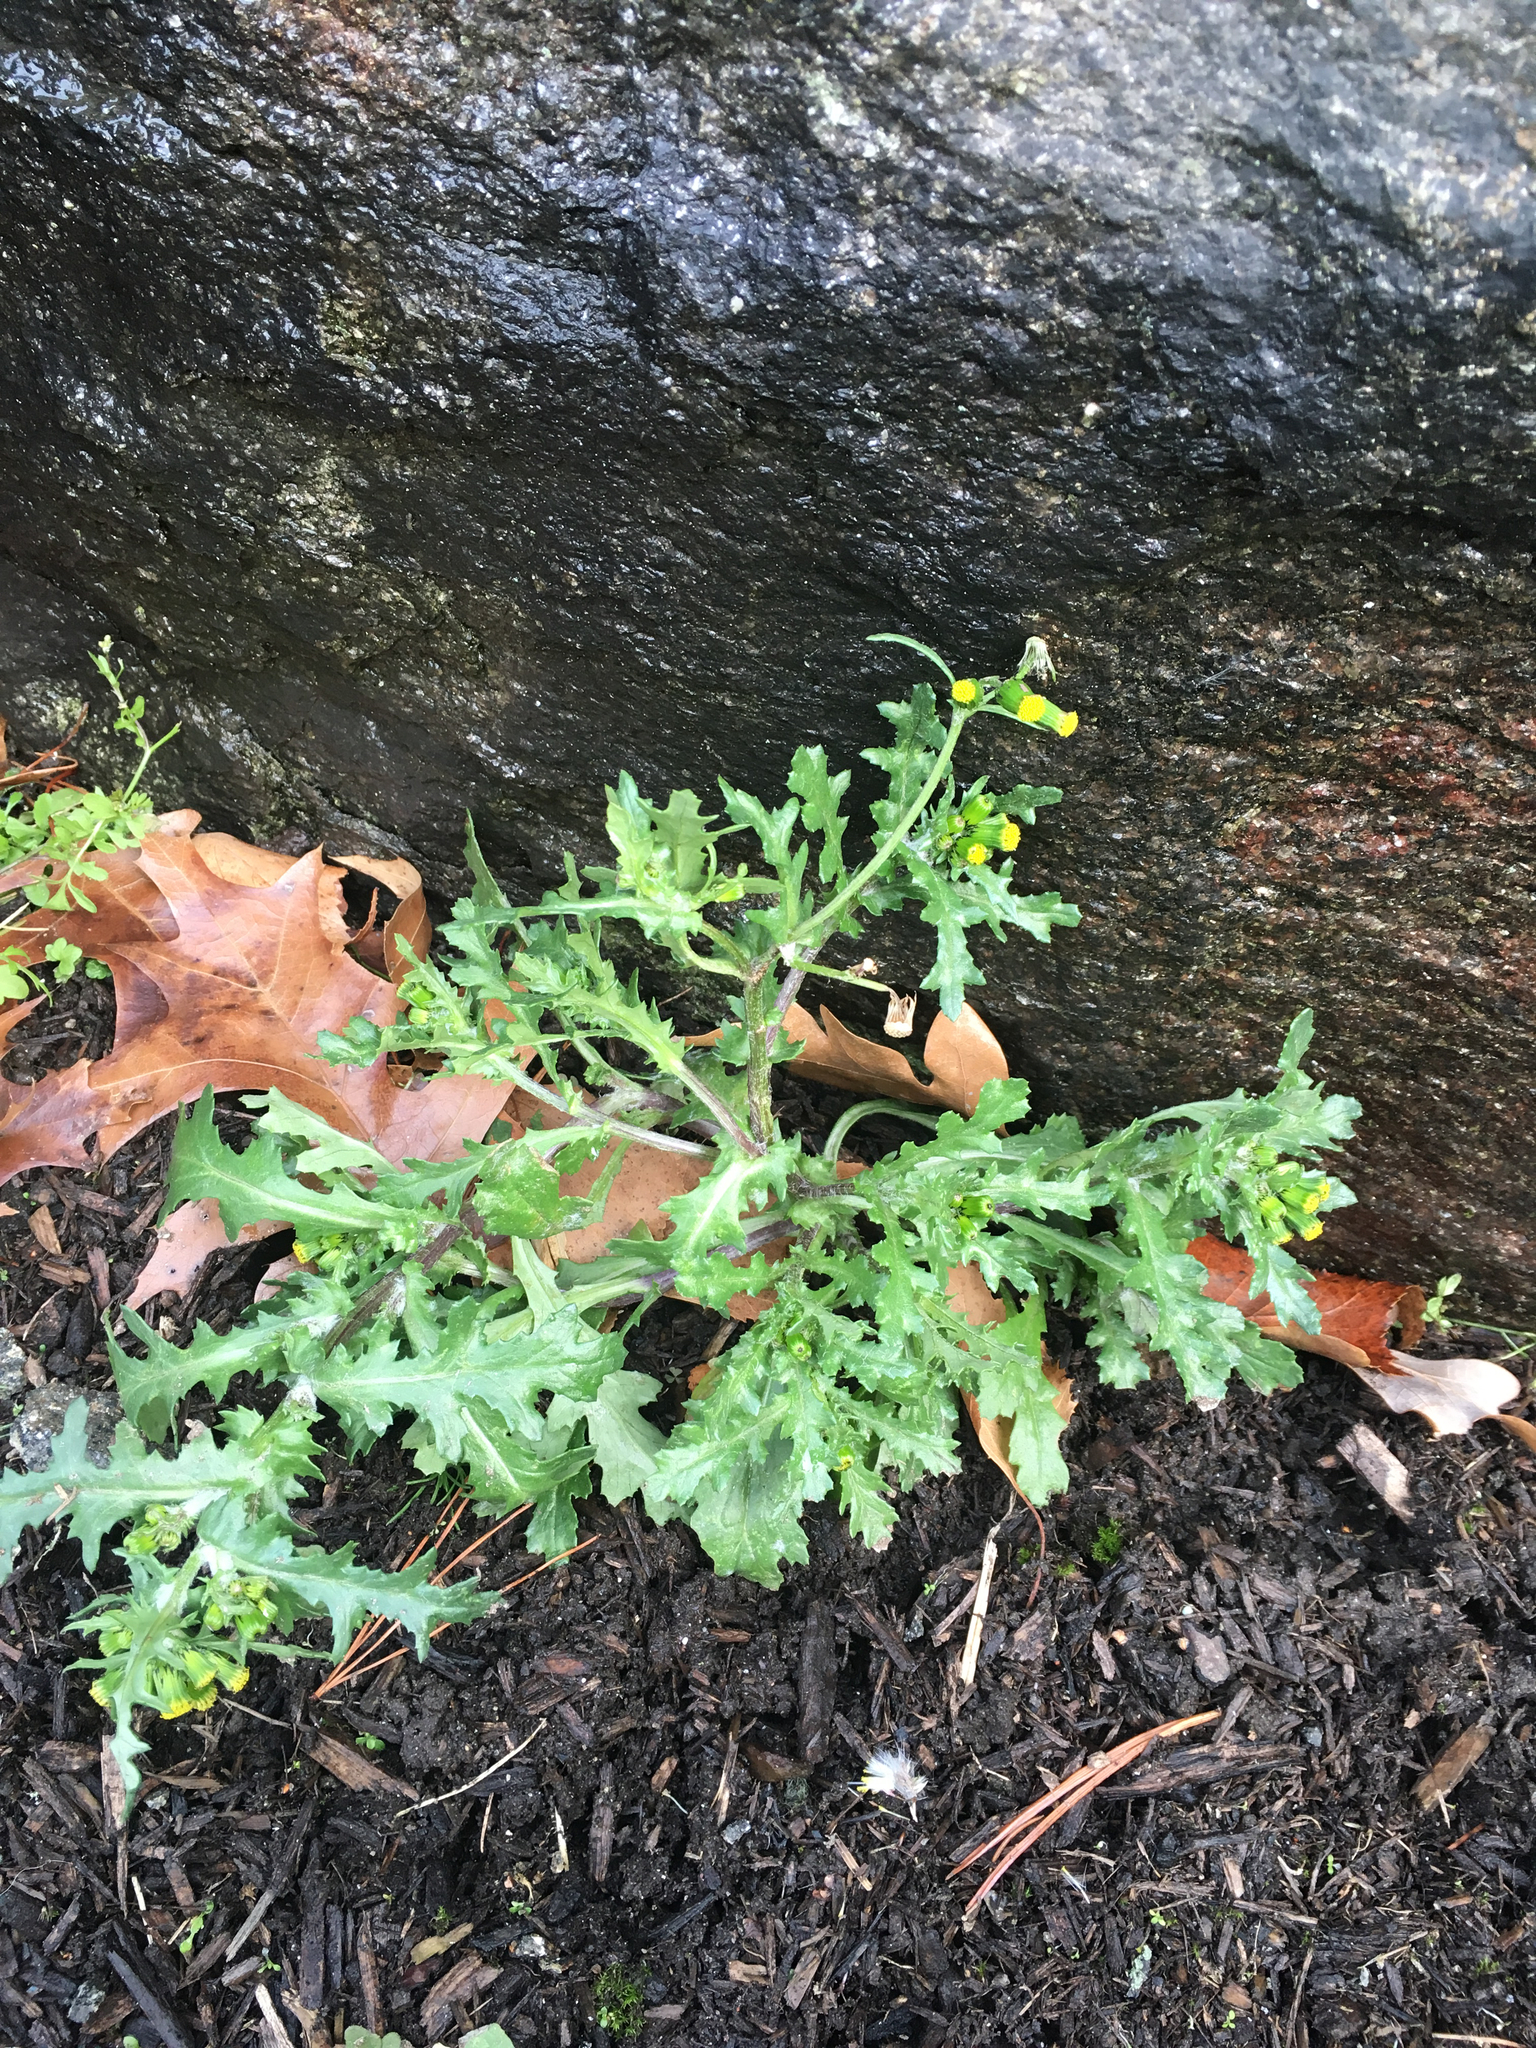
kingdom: Plantae
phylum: Tracheophyta
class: Magnoliopsida
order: Asterales
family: Asteraceae
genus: Senecio
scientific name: Senecio vulgaris
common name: Old-man-in-the-spring
